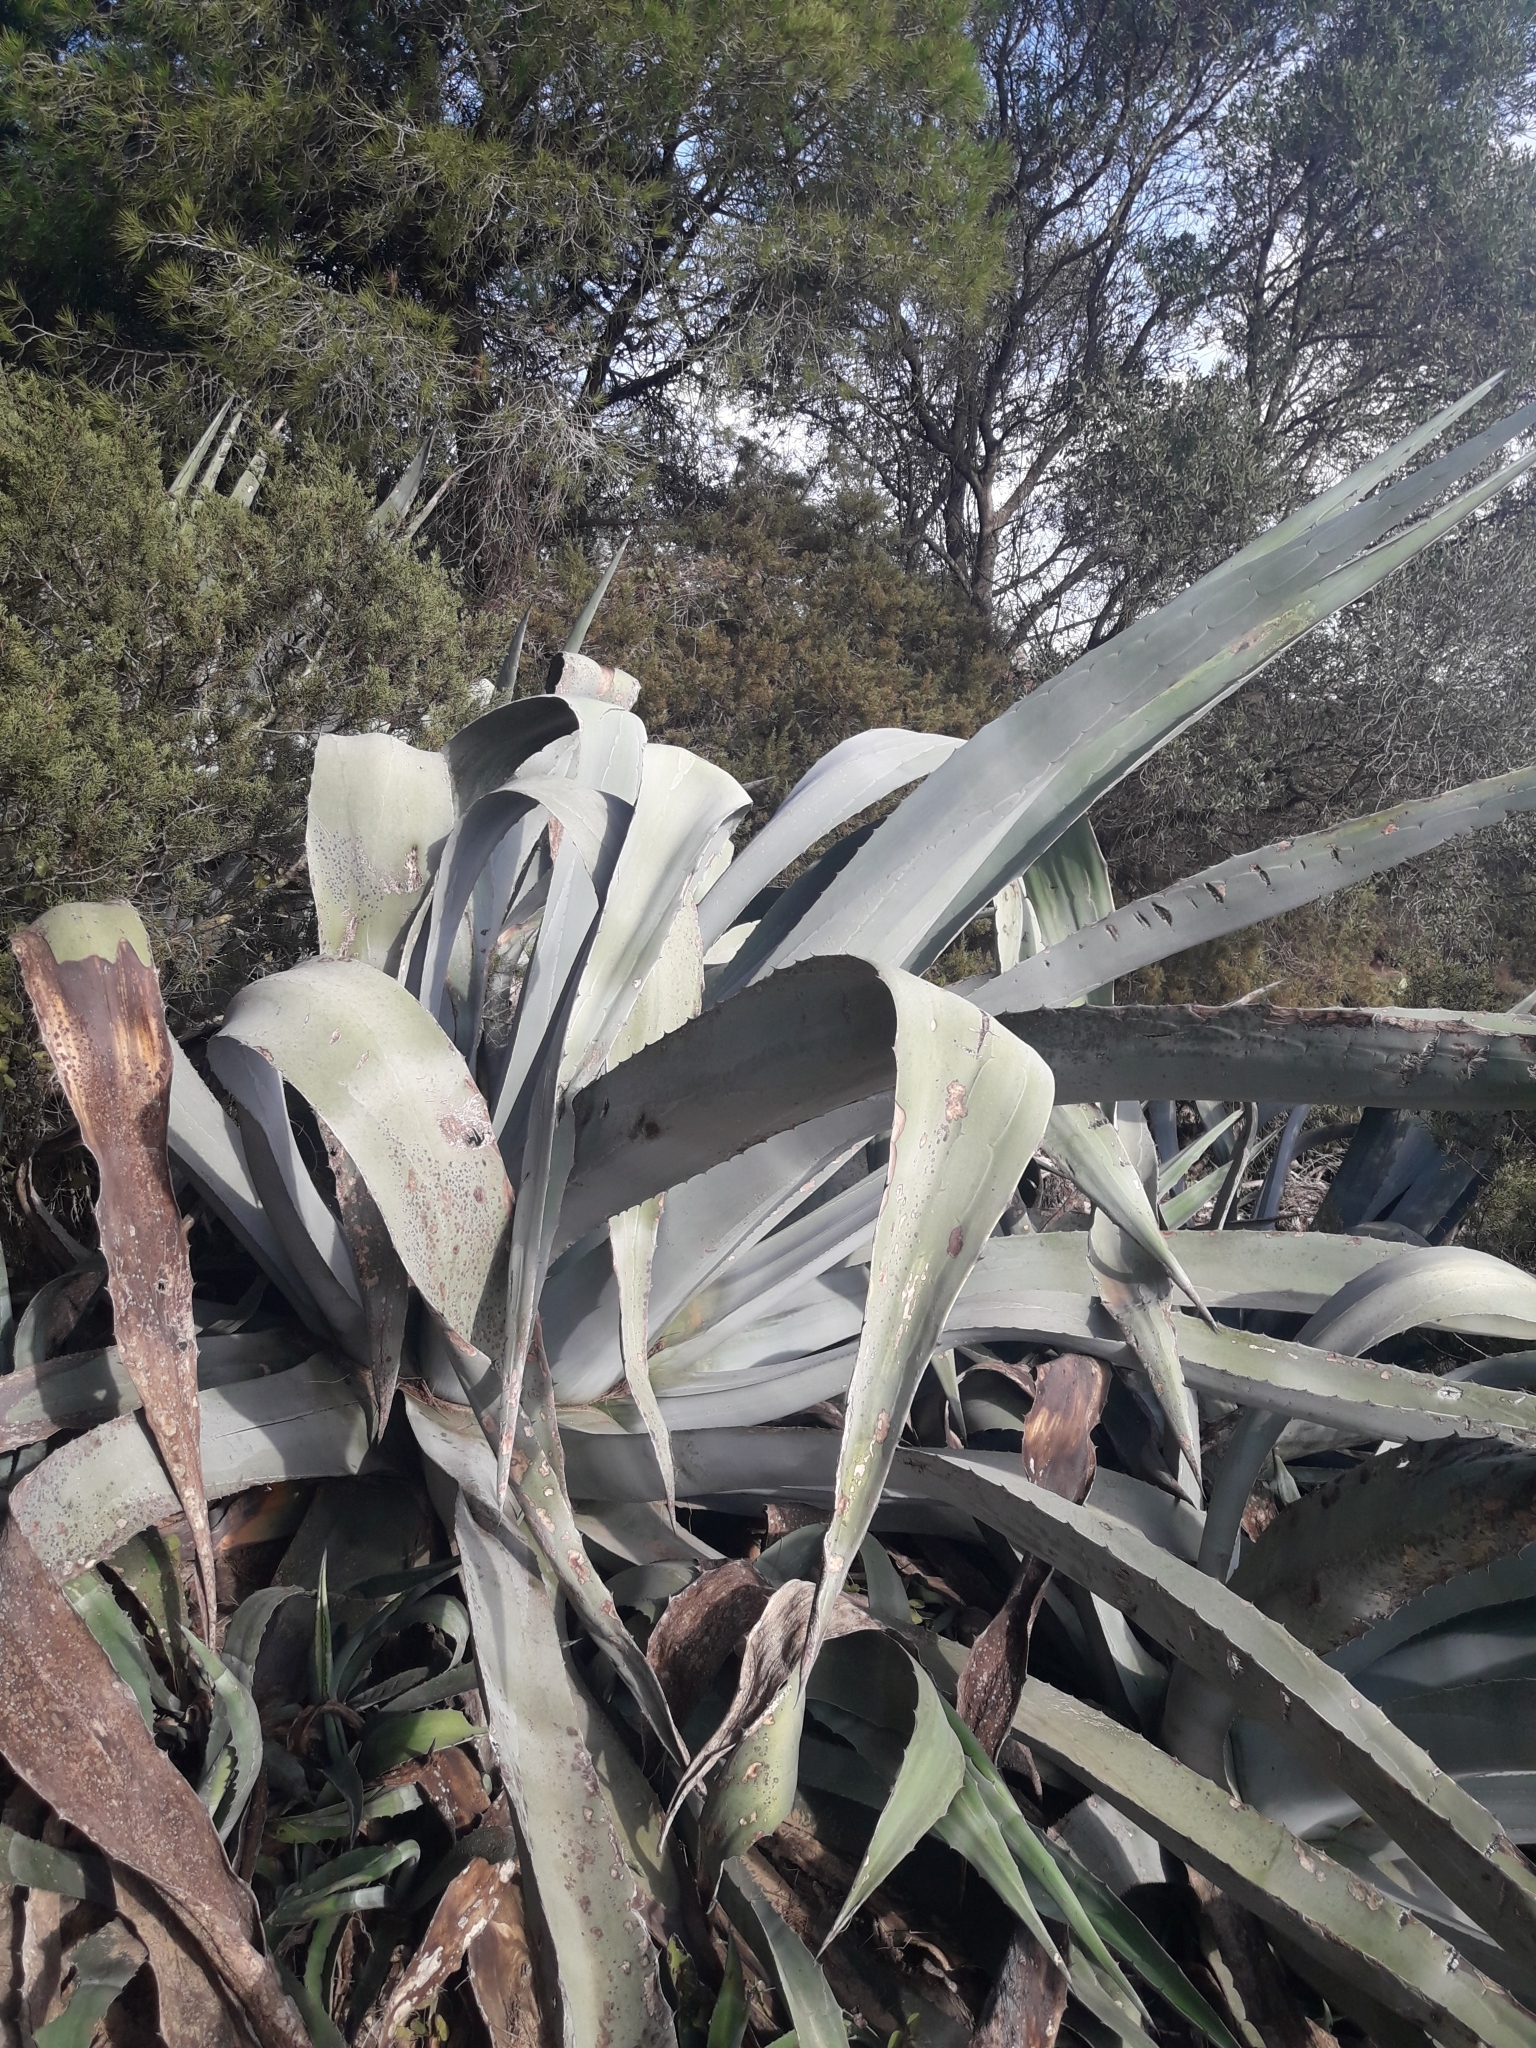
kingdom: Plantae
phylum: Tracheophyta
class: Liliopsida
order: Asparagales
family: Asparagaceae
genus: Agave
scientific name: Agave americana
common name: Centuryplant
